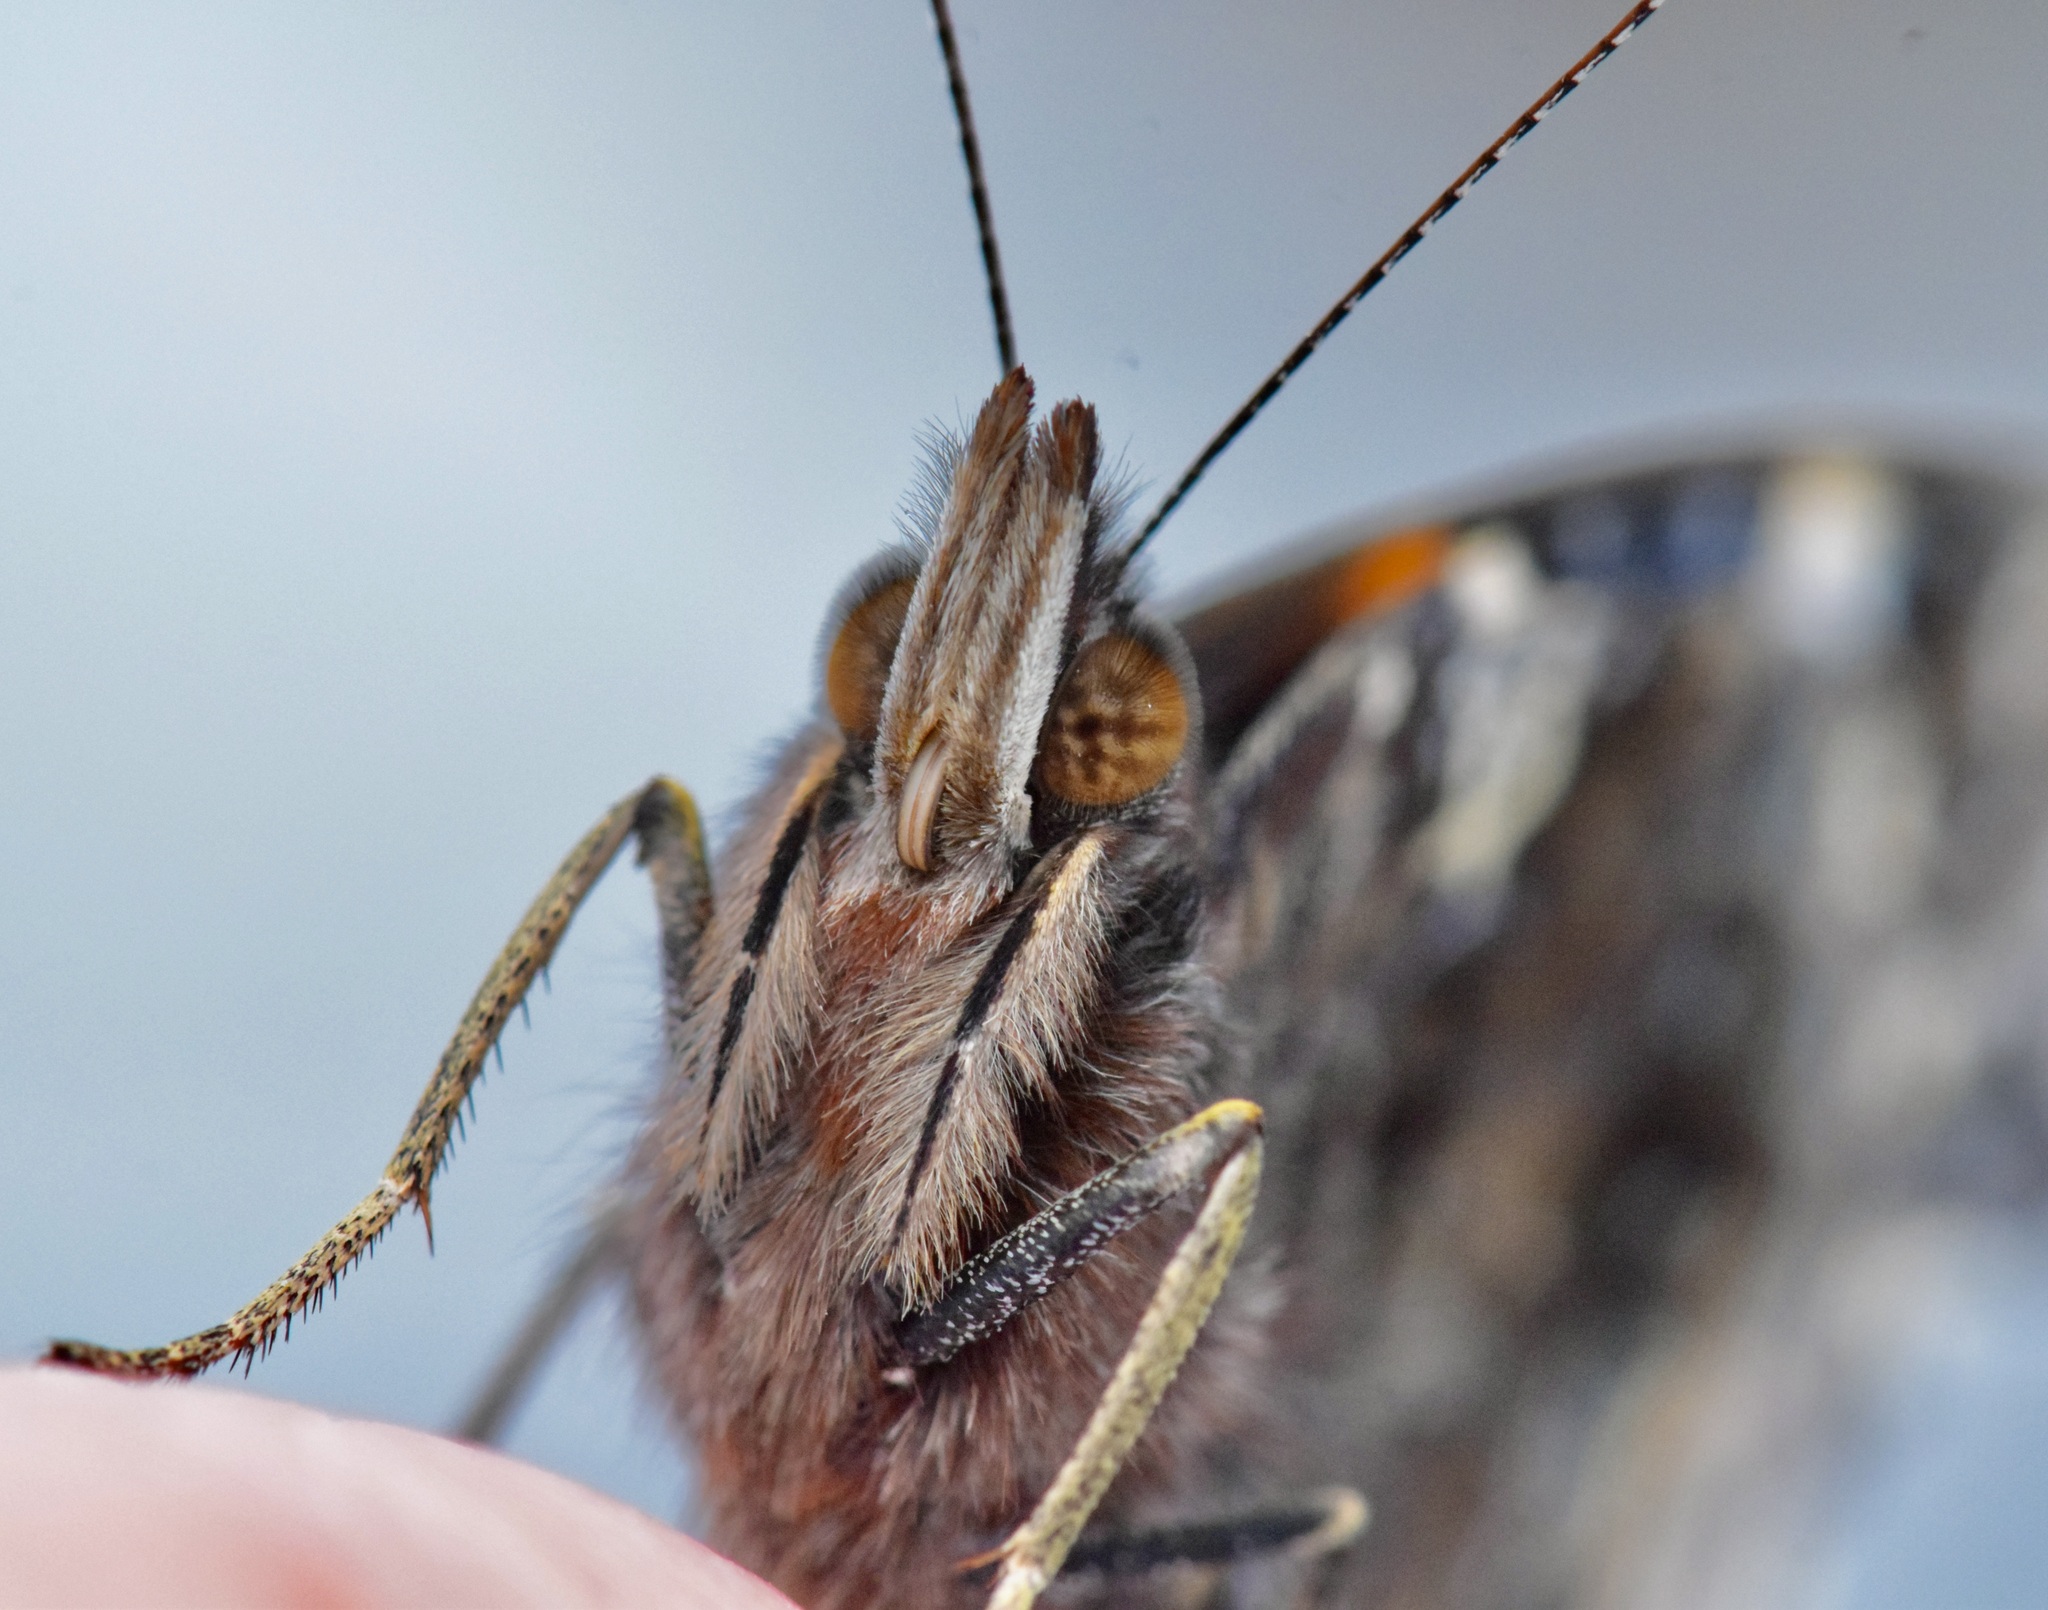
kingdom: Animalia
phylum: Arthropoda
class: Insecta
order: Lepidoptera
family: Nymphalidae
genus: Vanessa
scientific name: Vanessa atalanta
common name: Red admiral
